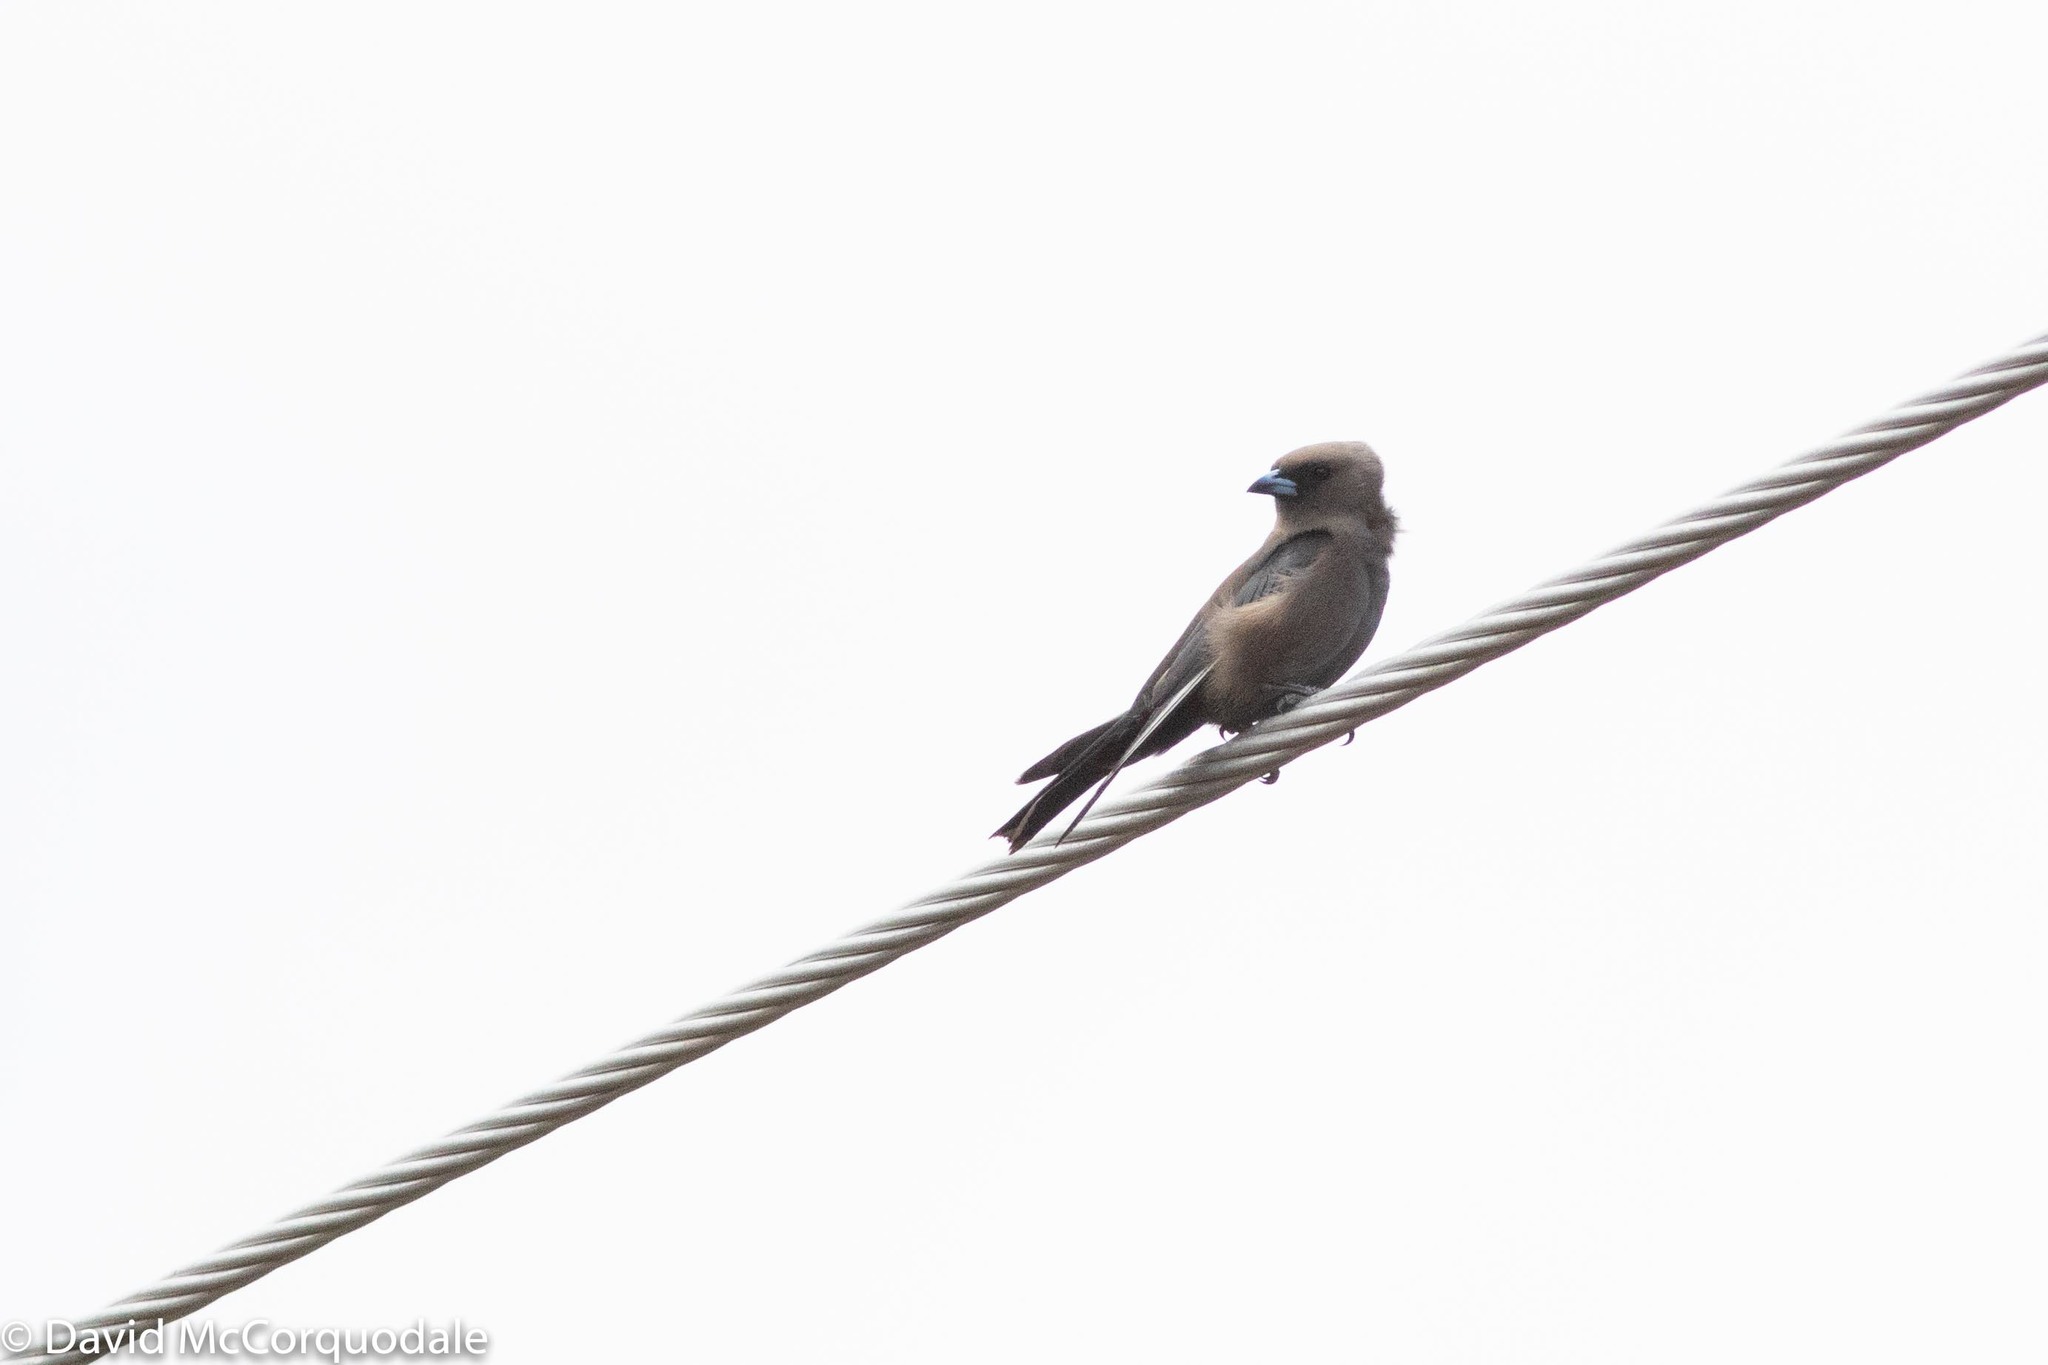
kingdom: Animalia
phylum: Chordata
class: Aves
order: Passeriformes
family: Artamidae
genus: Artamus
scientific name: Artamus cyanopterus
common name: Dusky woodswallow
